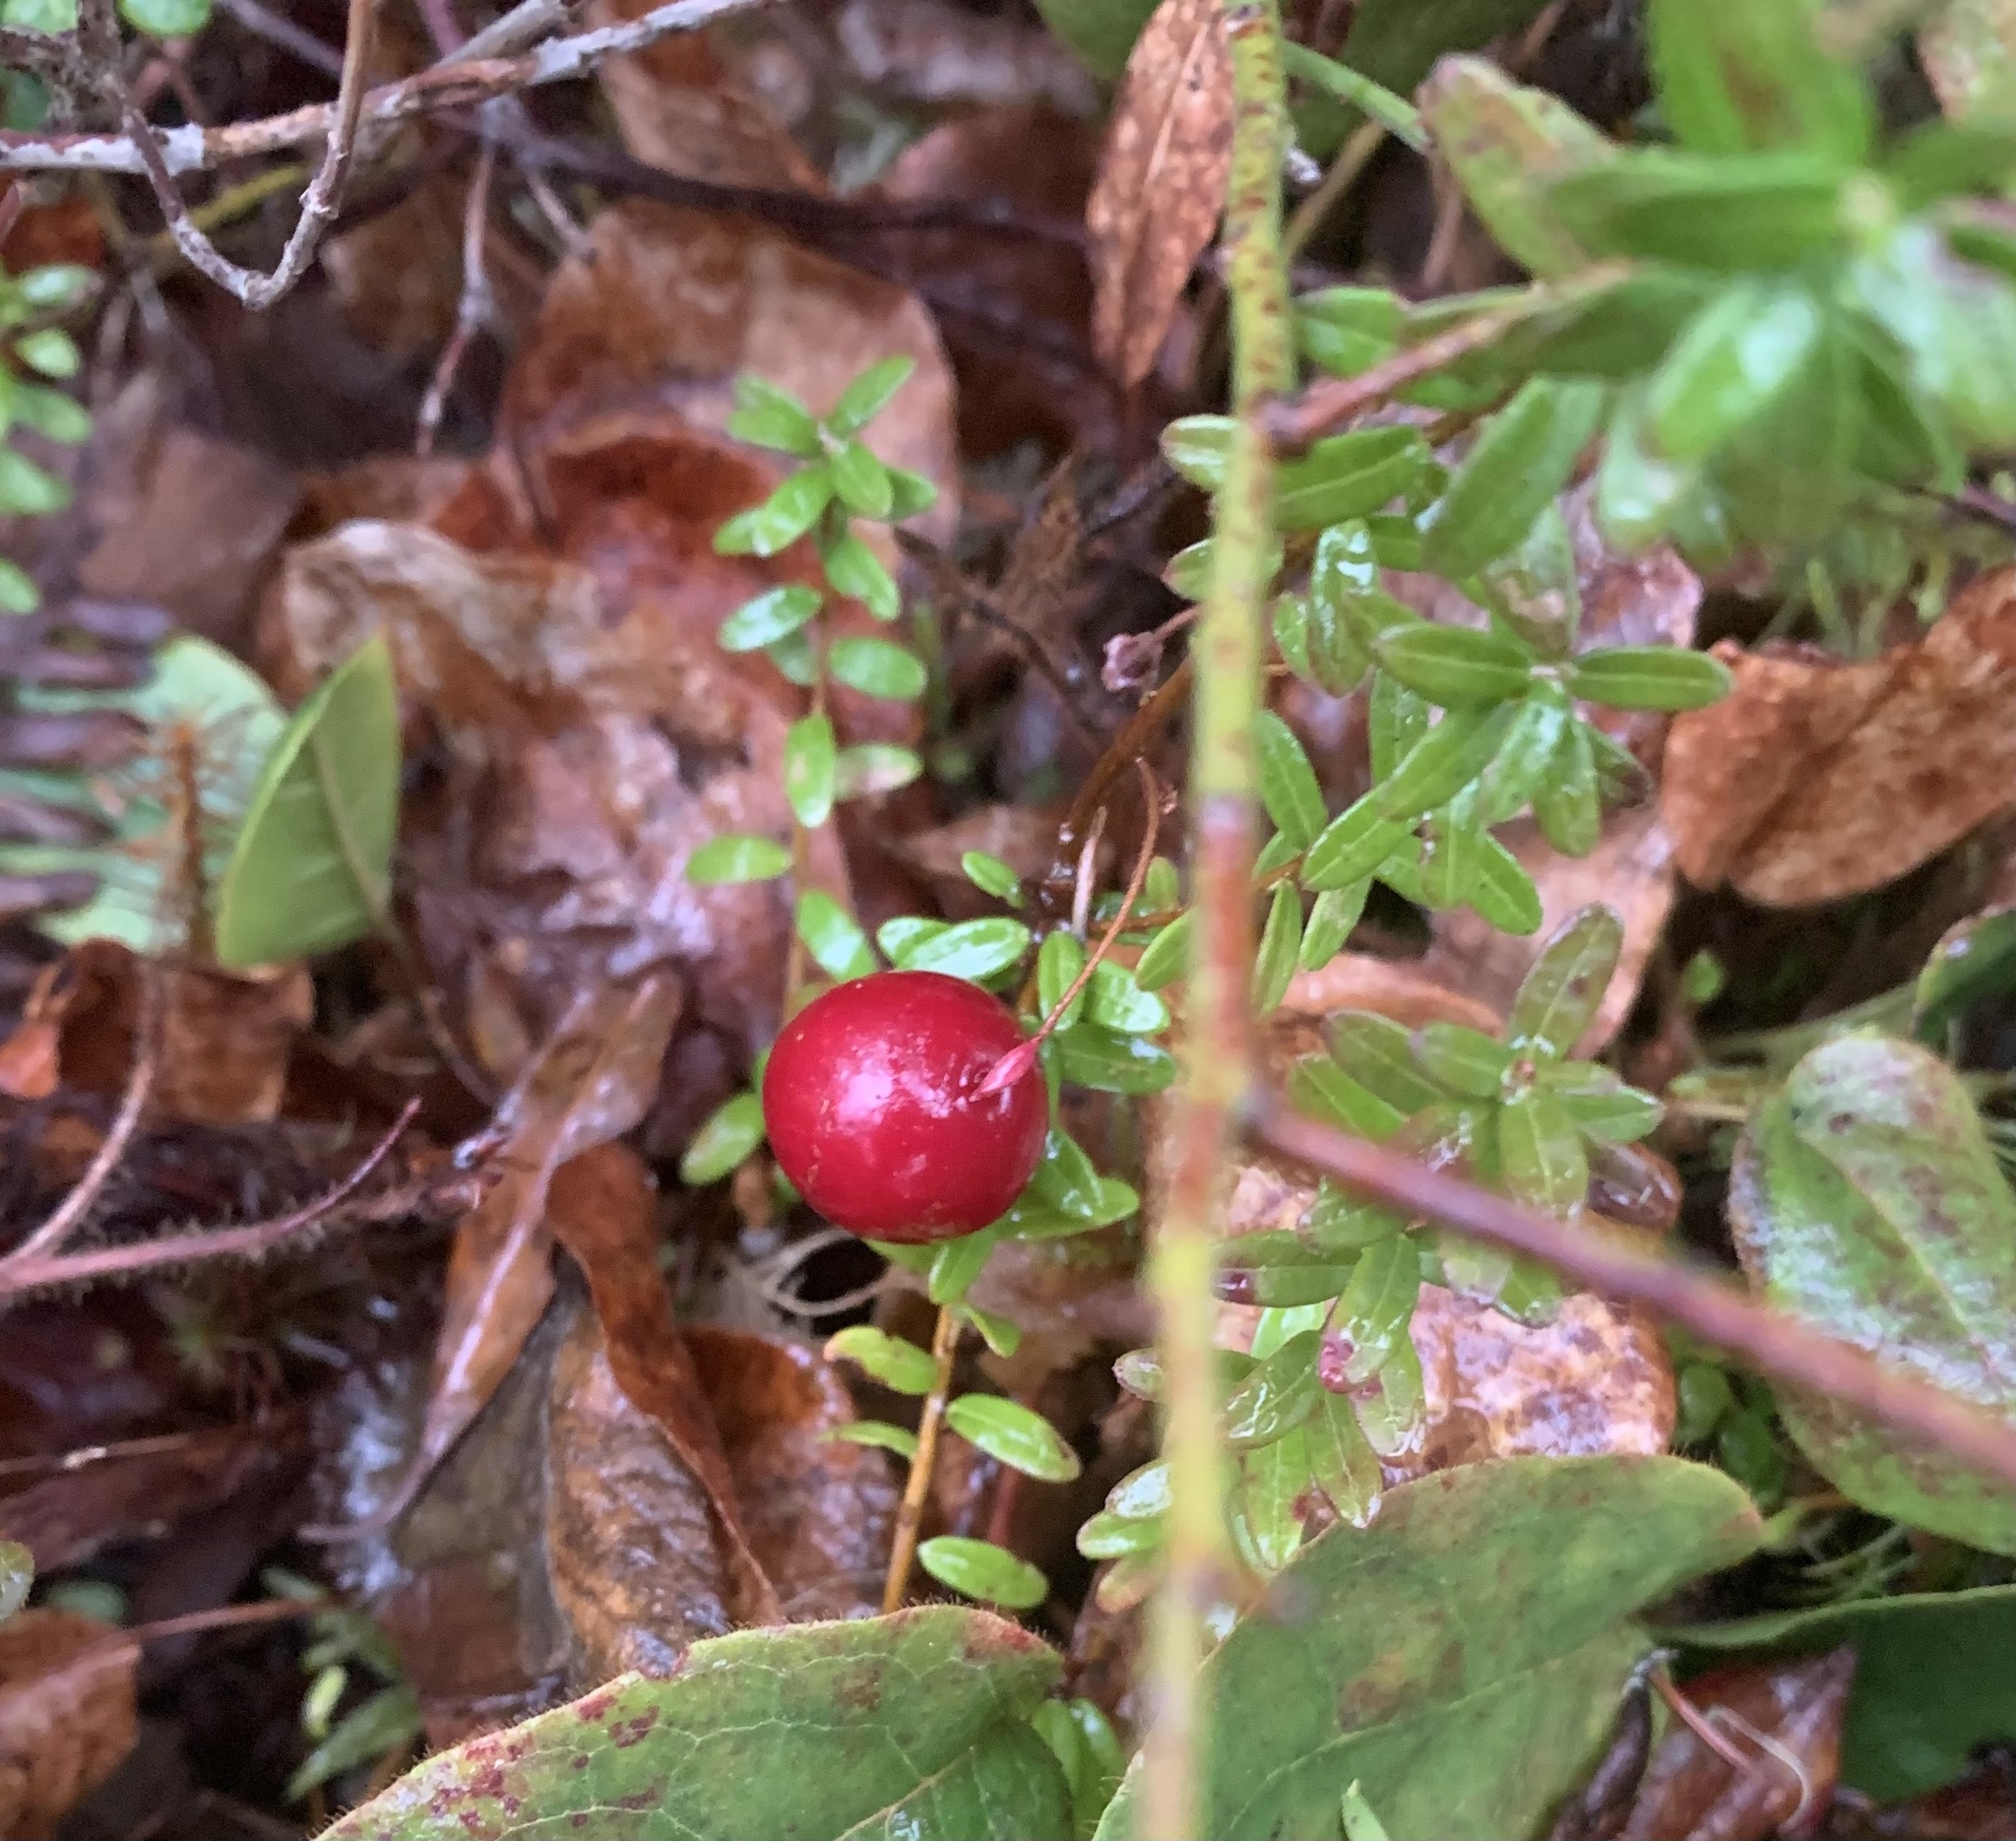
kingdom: Plantae
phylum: Tracheophyta
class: Magnoliopsida
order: Ericales
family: Ericaceae
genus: Vaccinium
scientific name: Vaccinium macrocarpon
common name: American cranberry
